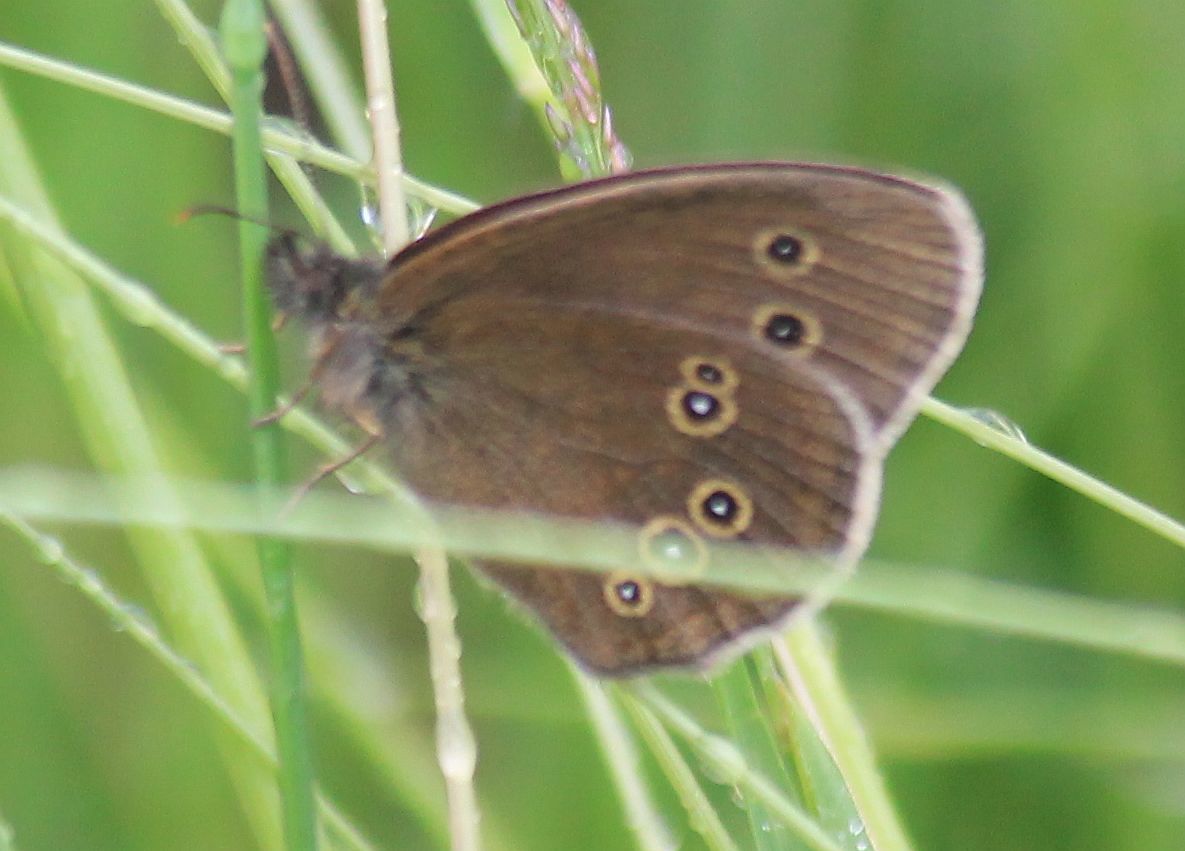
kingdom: Animalia
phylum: Arthropoda
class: Insecta
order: Lepidoptera
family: Nymphalidae
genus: Aphantopus
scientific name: Aphantopus hyperantus
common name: Ringlet
